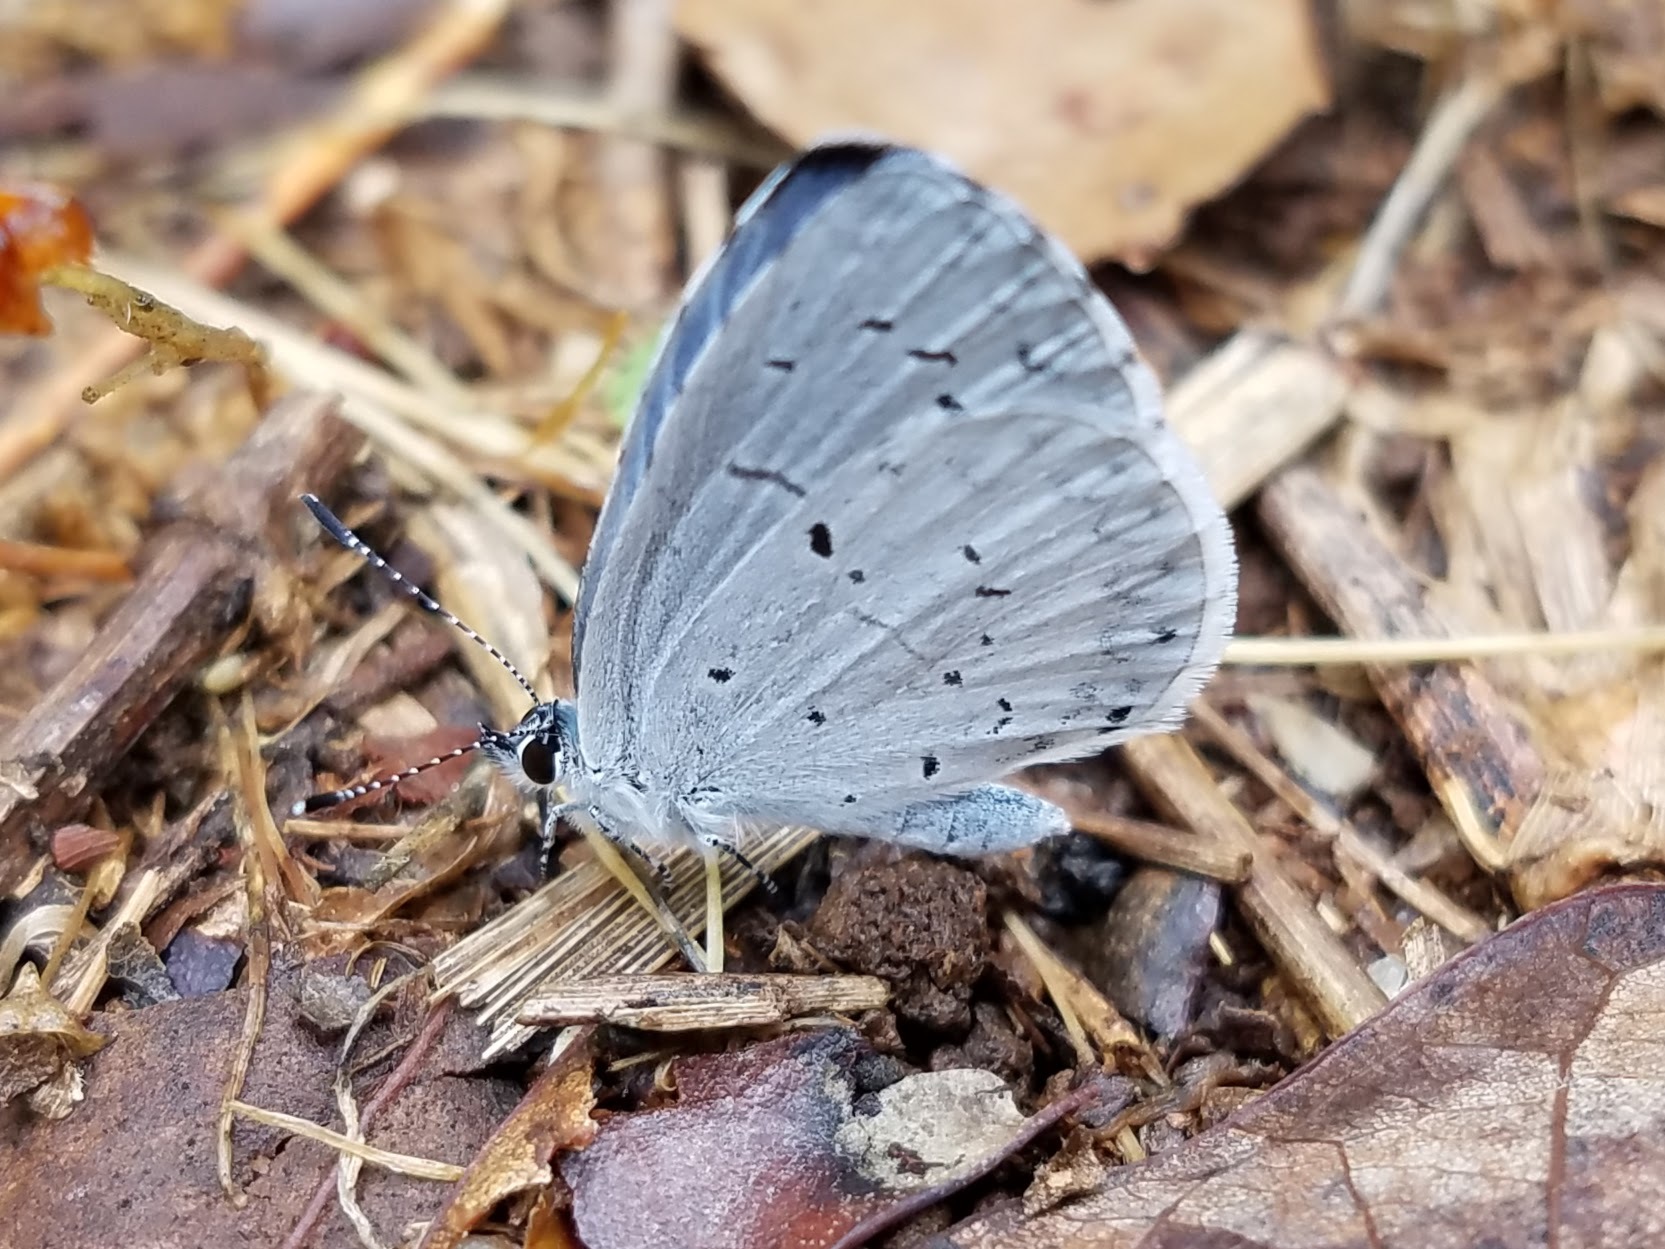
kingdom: Animalia
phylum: Arthropoda
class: Insecta
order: Lepidoptera
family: Lycaenidae
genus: Cyaniris
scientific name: Cyaniris neglecta
